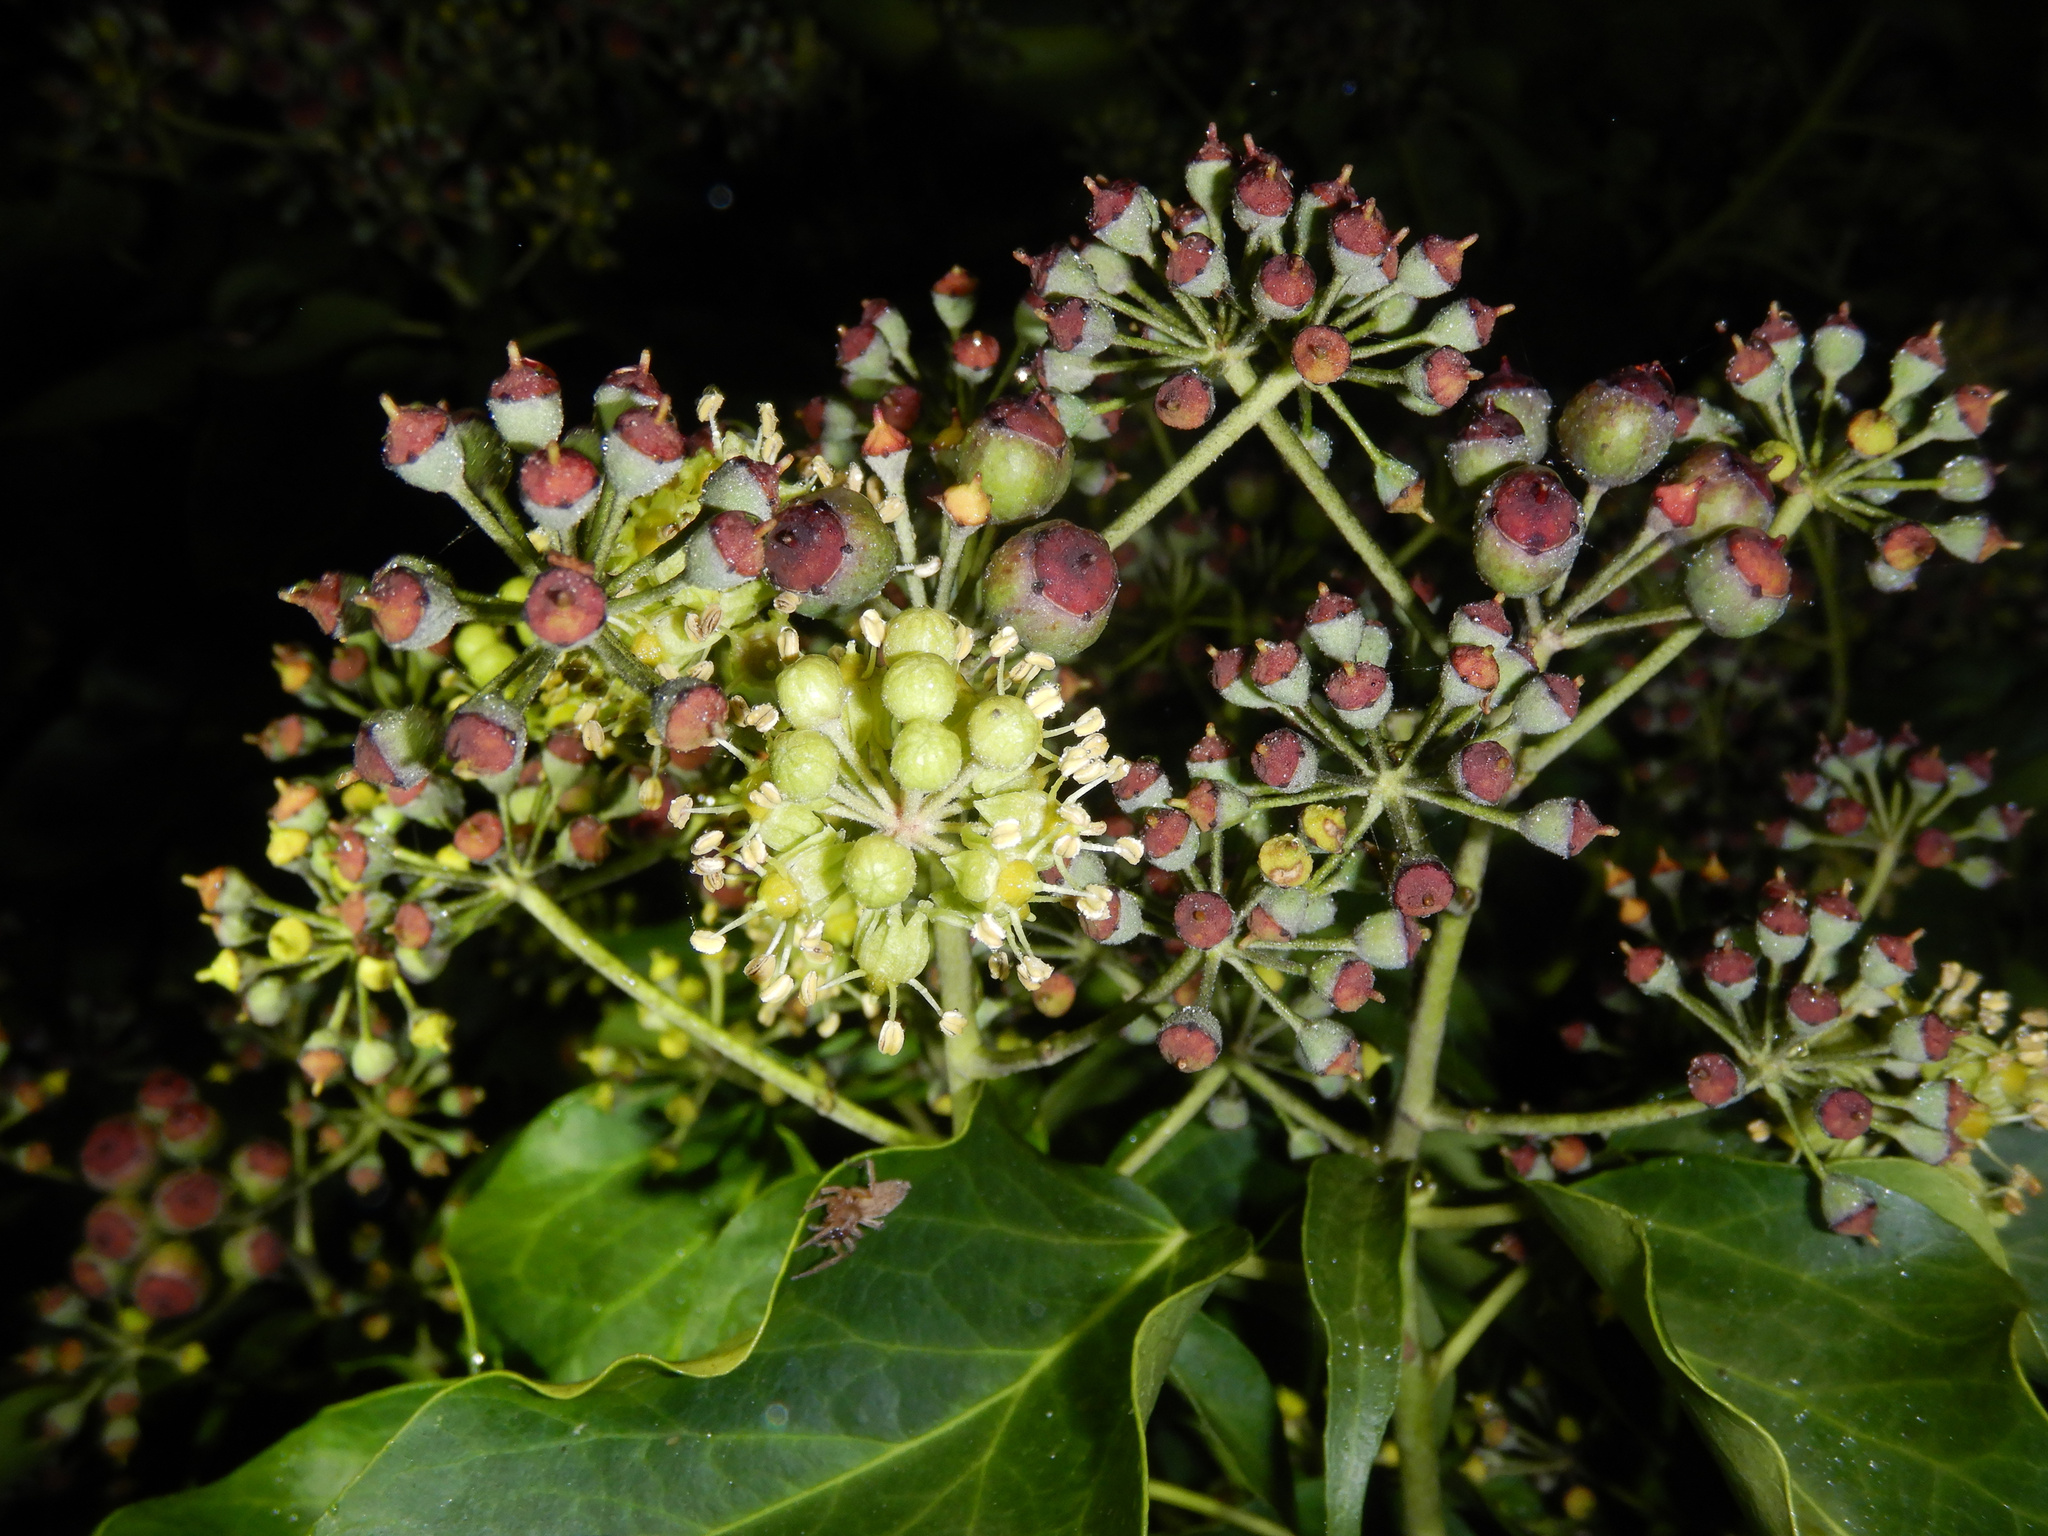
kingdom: Plantae
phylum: Tracheophyta
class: Magnoliopsida
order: Apiales
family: Araliaceae
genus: Hedera
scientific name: Hedera helix
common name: Ivy
